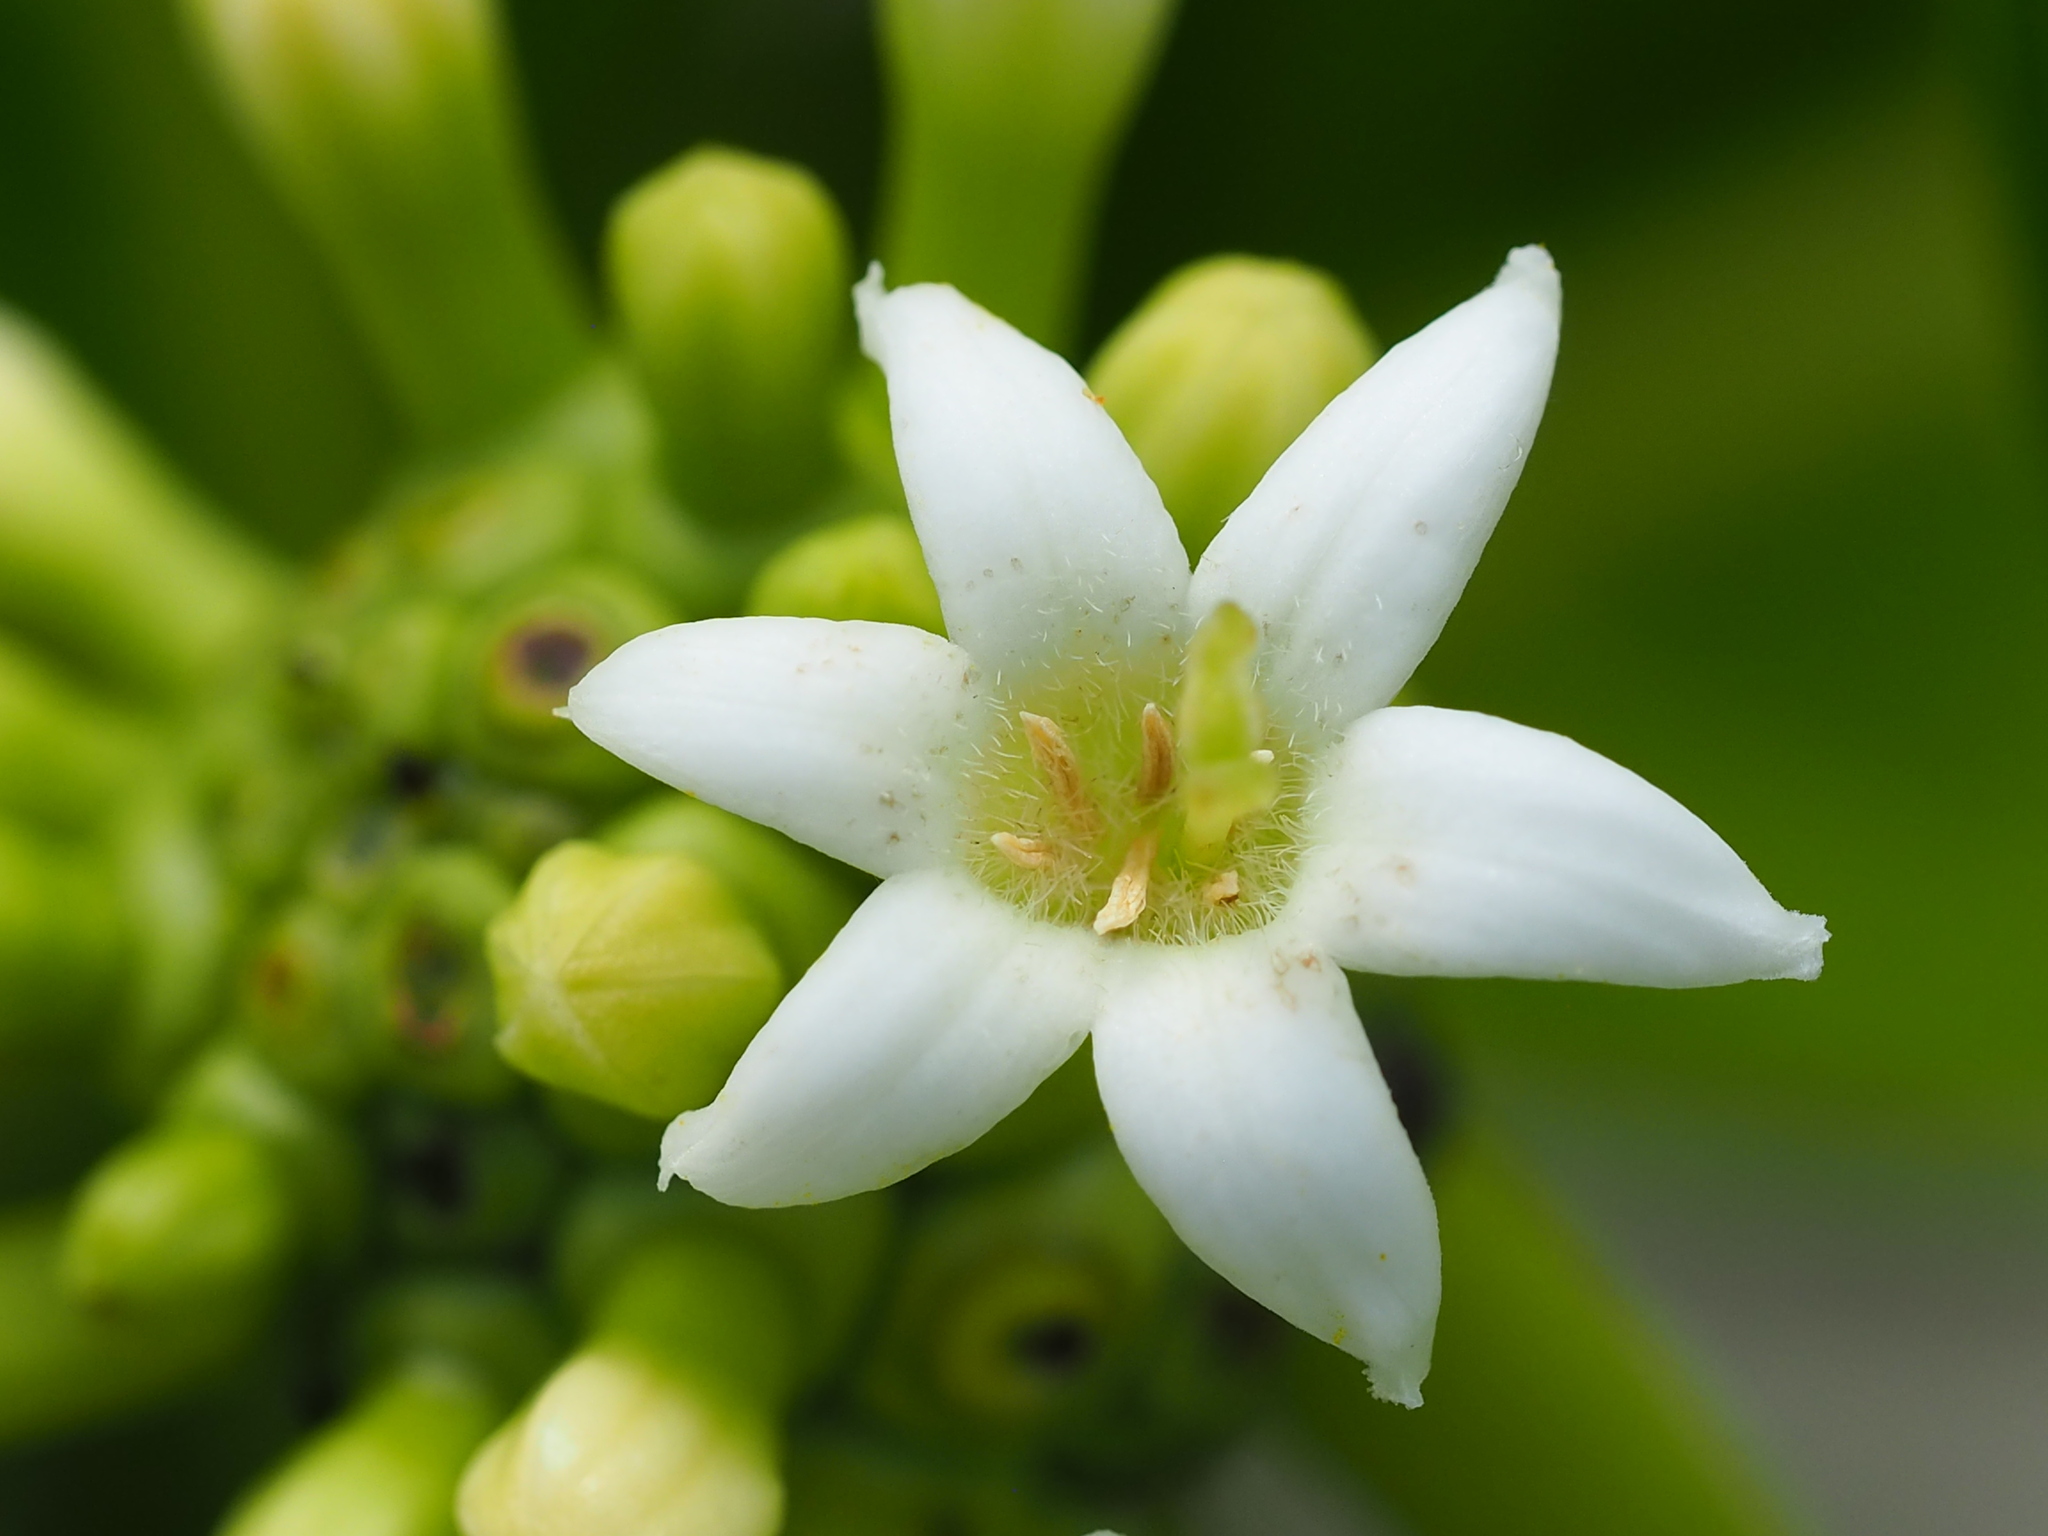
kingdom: Plantae
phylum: Tracheophyta
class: Magnoliopsida
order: Gentianales
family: Rubiaceae
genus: Morinda
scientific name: Morinda citrifolia
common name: Indian-mulberry
